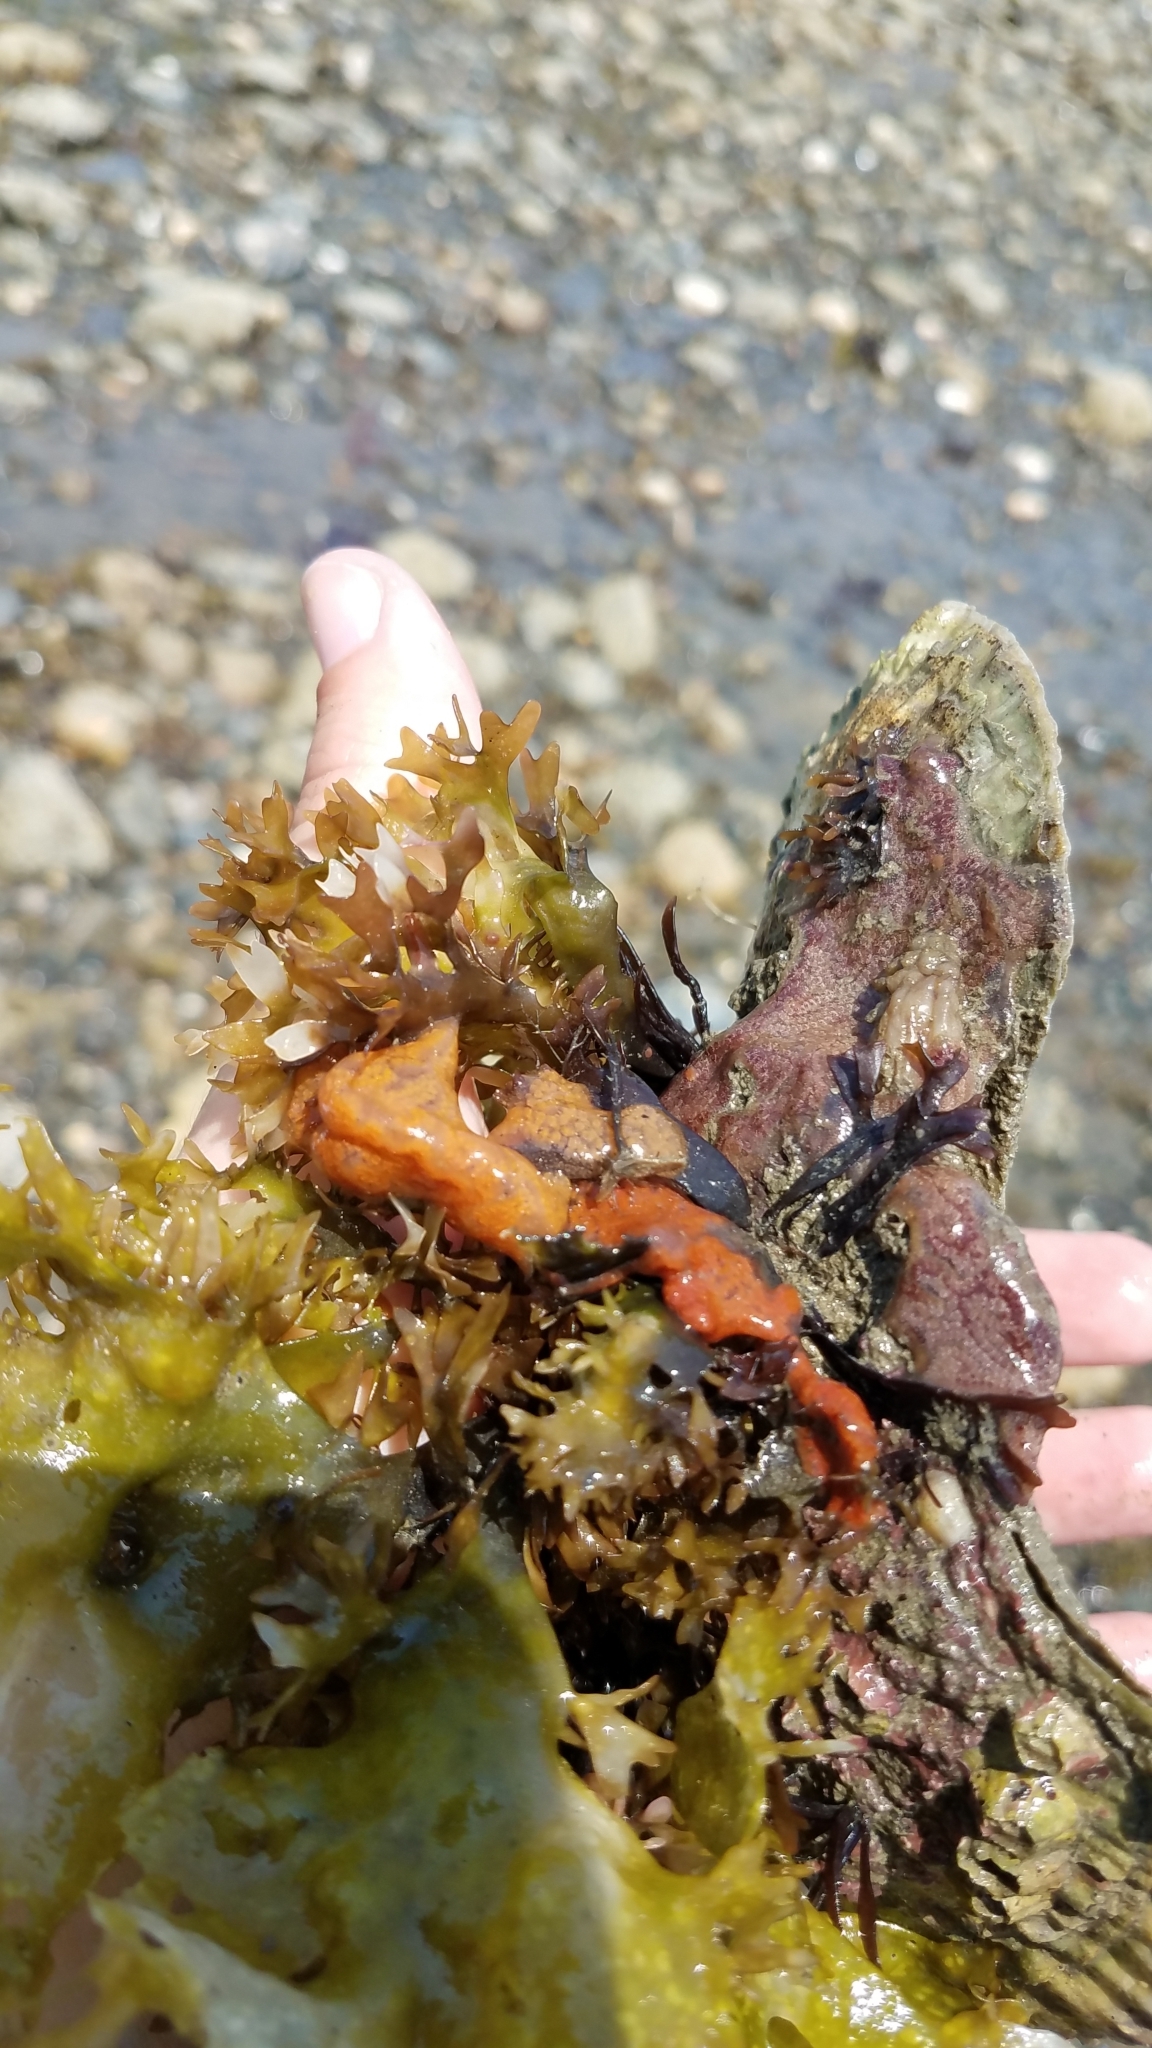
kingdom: Animalia
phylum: Chordata
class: Ascidiacea
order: Stolidobranchia
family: Styelidae
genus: Botrylloides
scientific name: Botrylloides violaceus
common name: Colonial sea squirt
